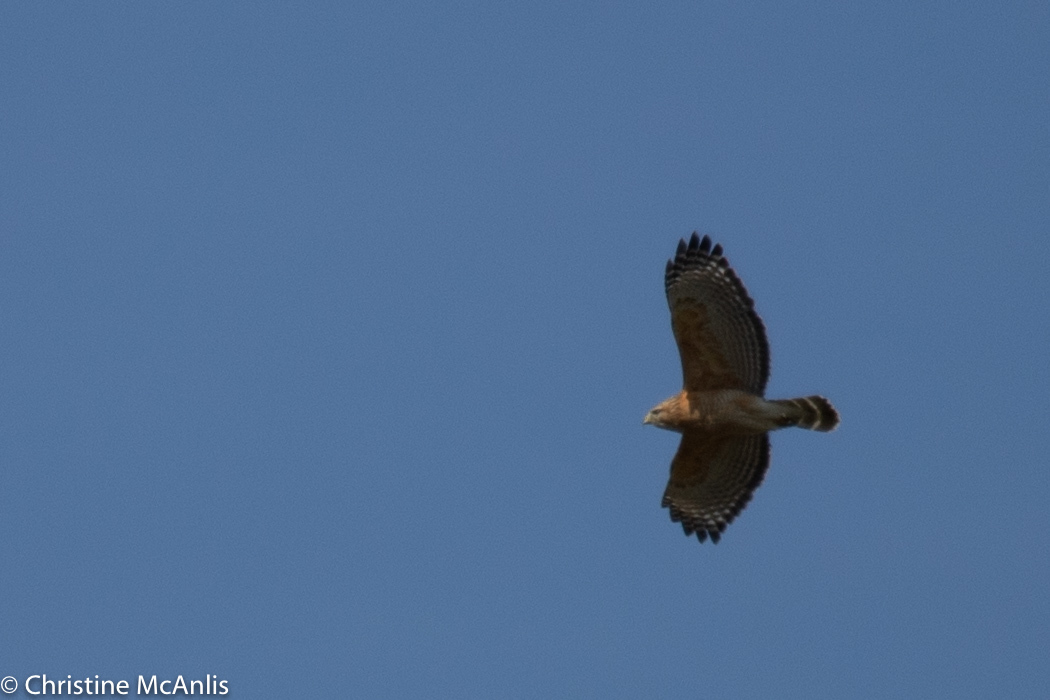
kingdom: Animalia
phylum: Chordata
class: Aves
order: Accipitriformes
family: Accipitridae
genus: Buteo
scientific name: Buteo lineatus
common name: Red-shouldered hawk
